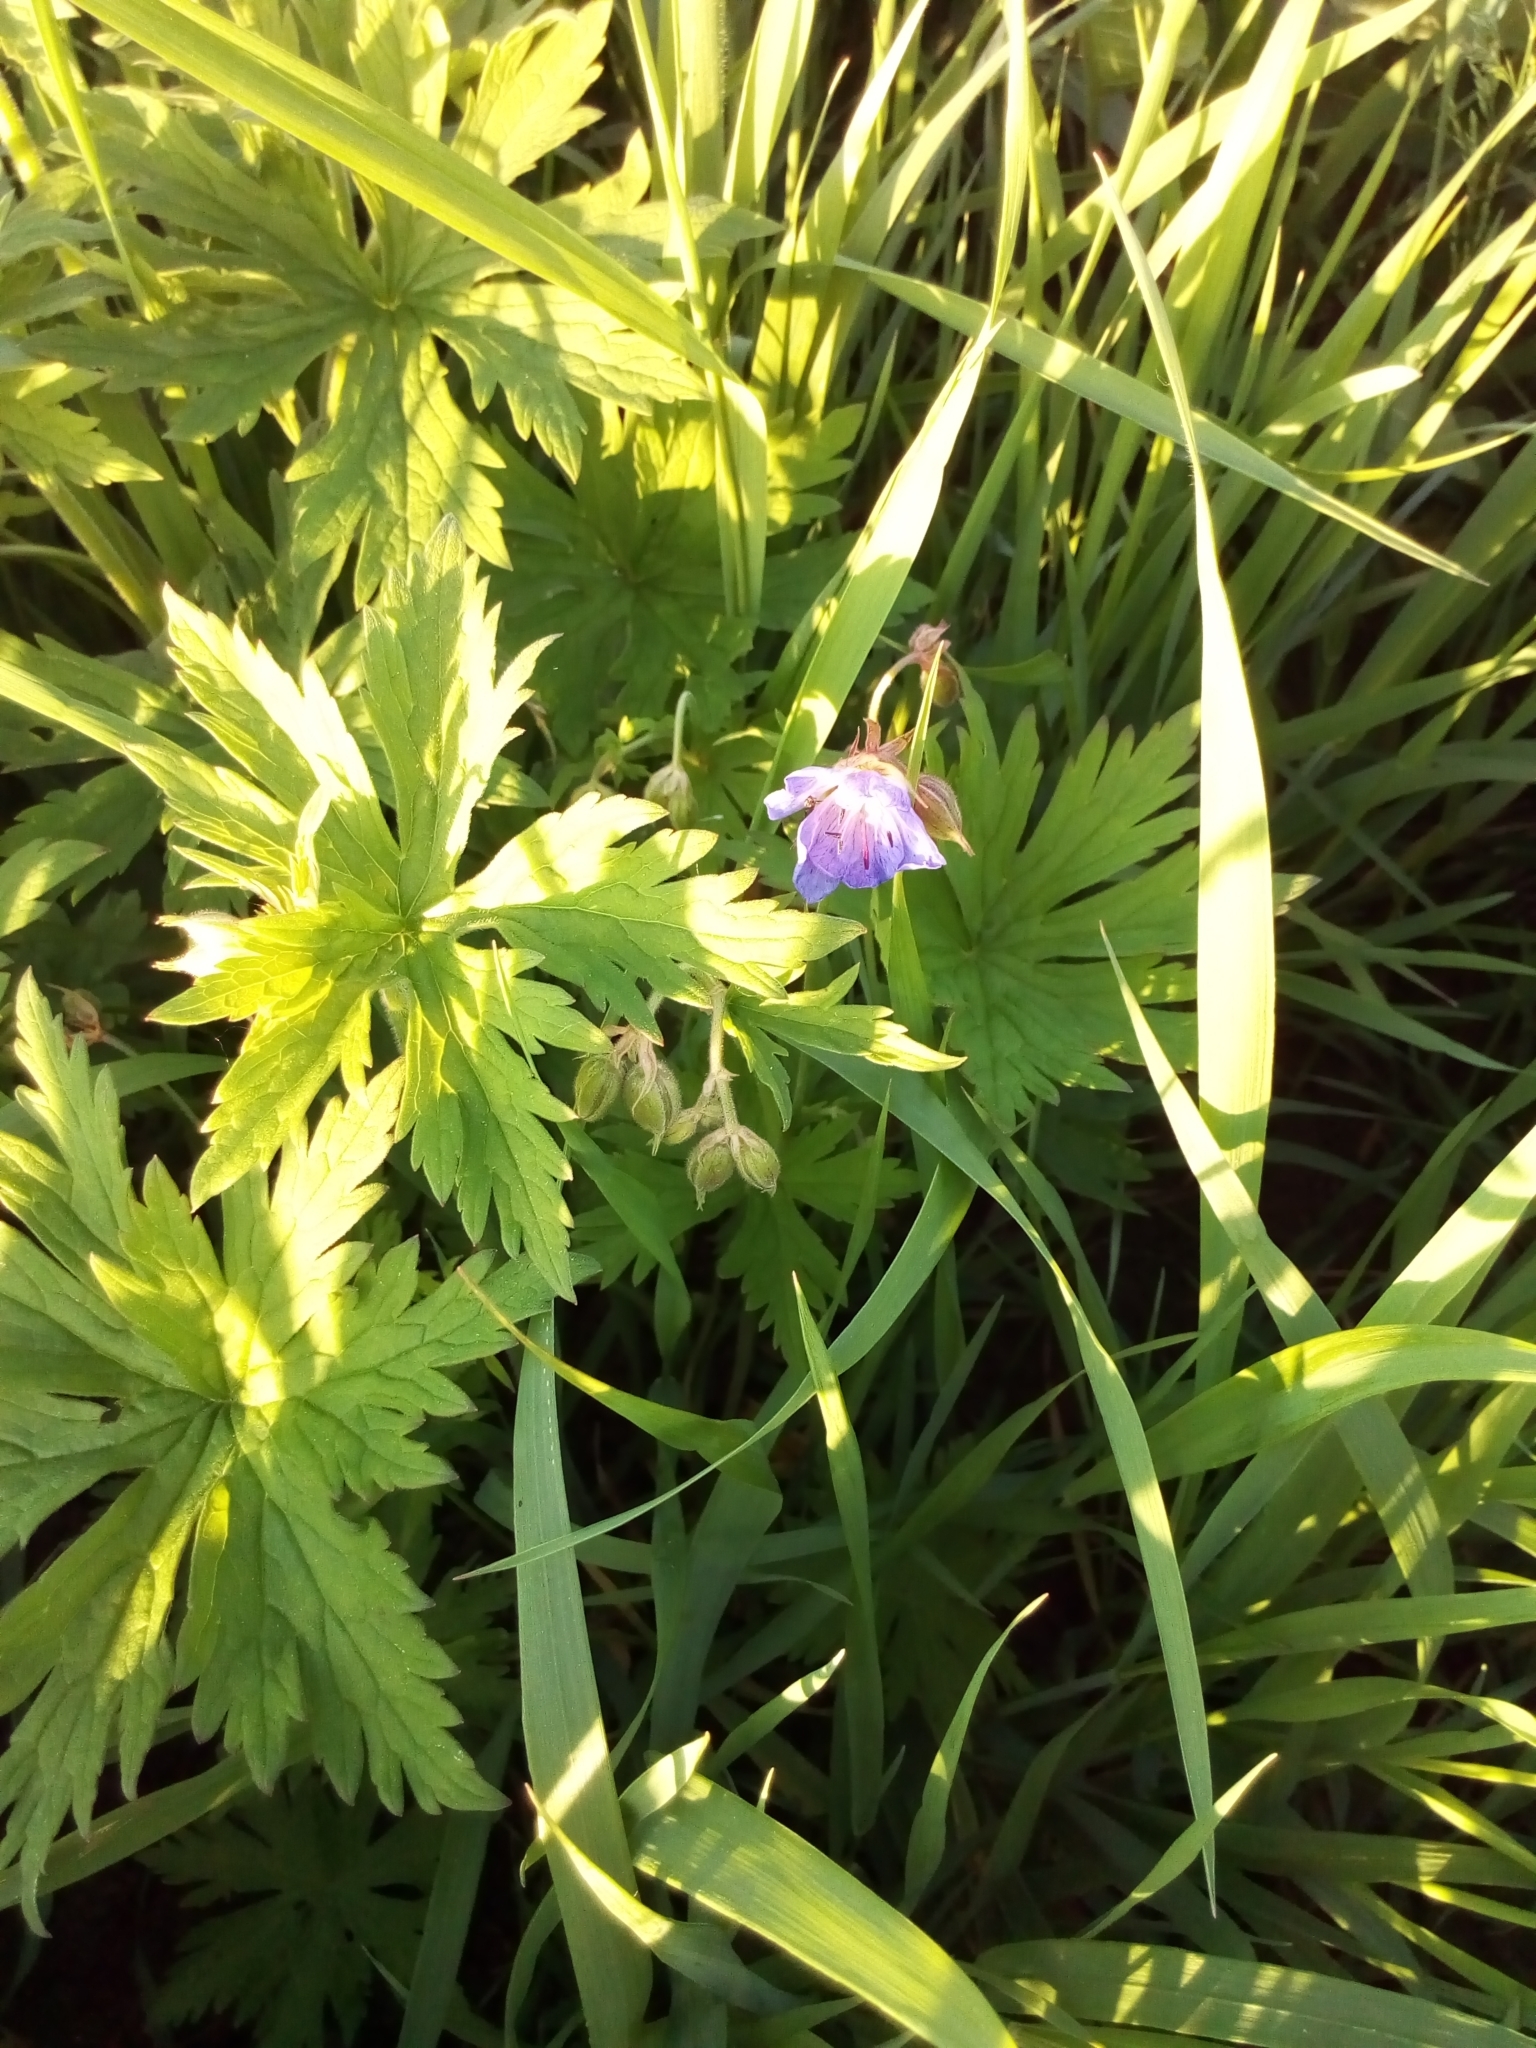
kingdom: Plantae
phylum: Tracheophyta
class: Magnoliopsida
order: Geraniales
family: Geraniaceae
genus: Geranium
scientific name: Geranium pratense
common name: Meadow crane's-bill
